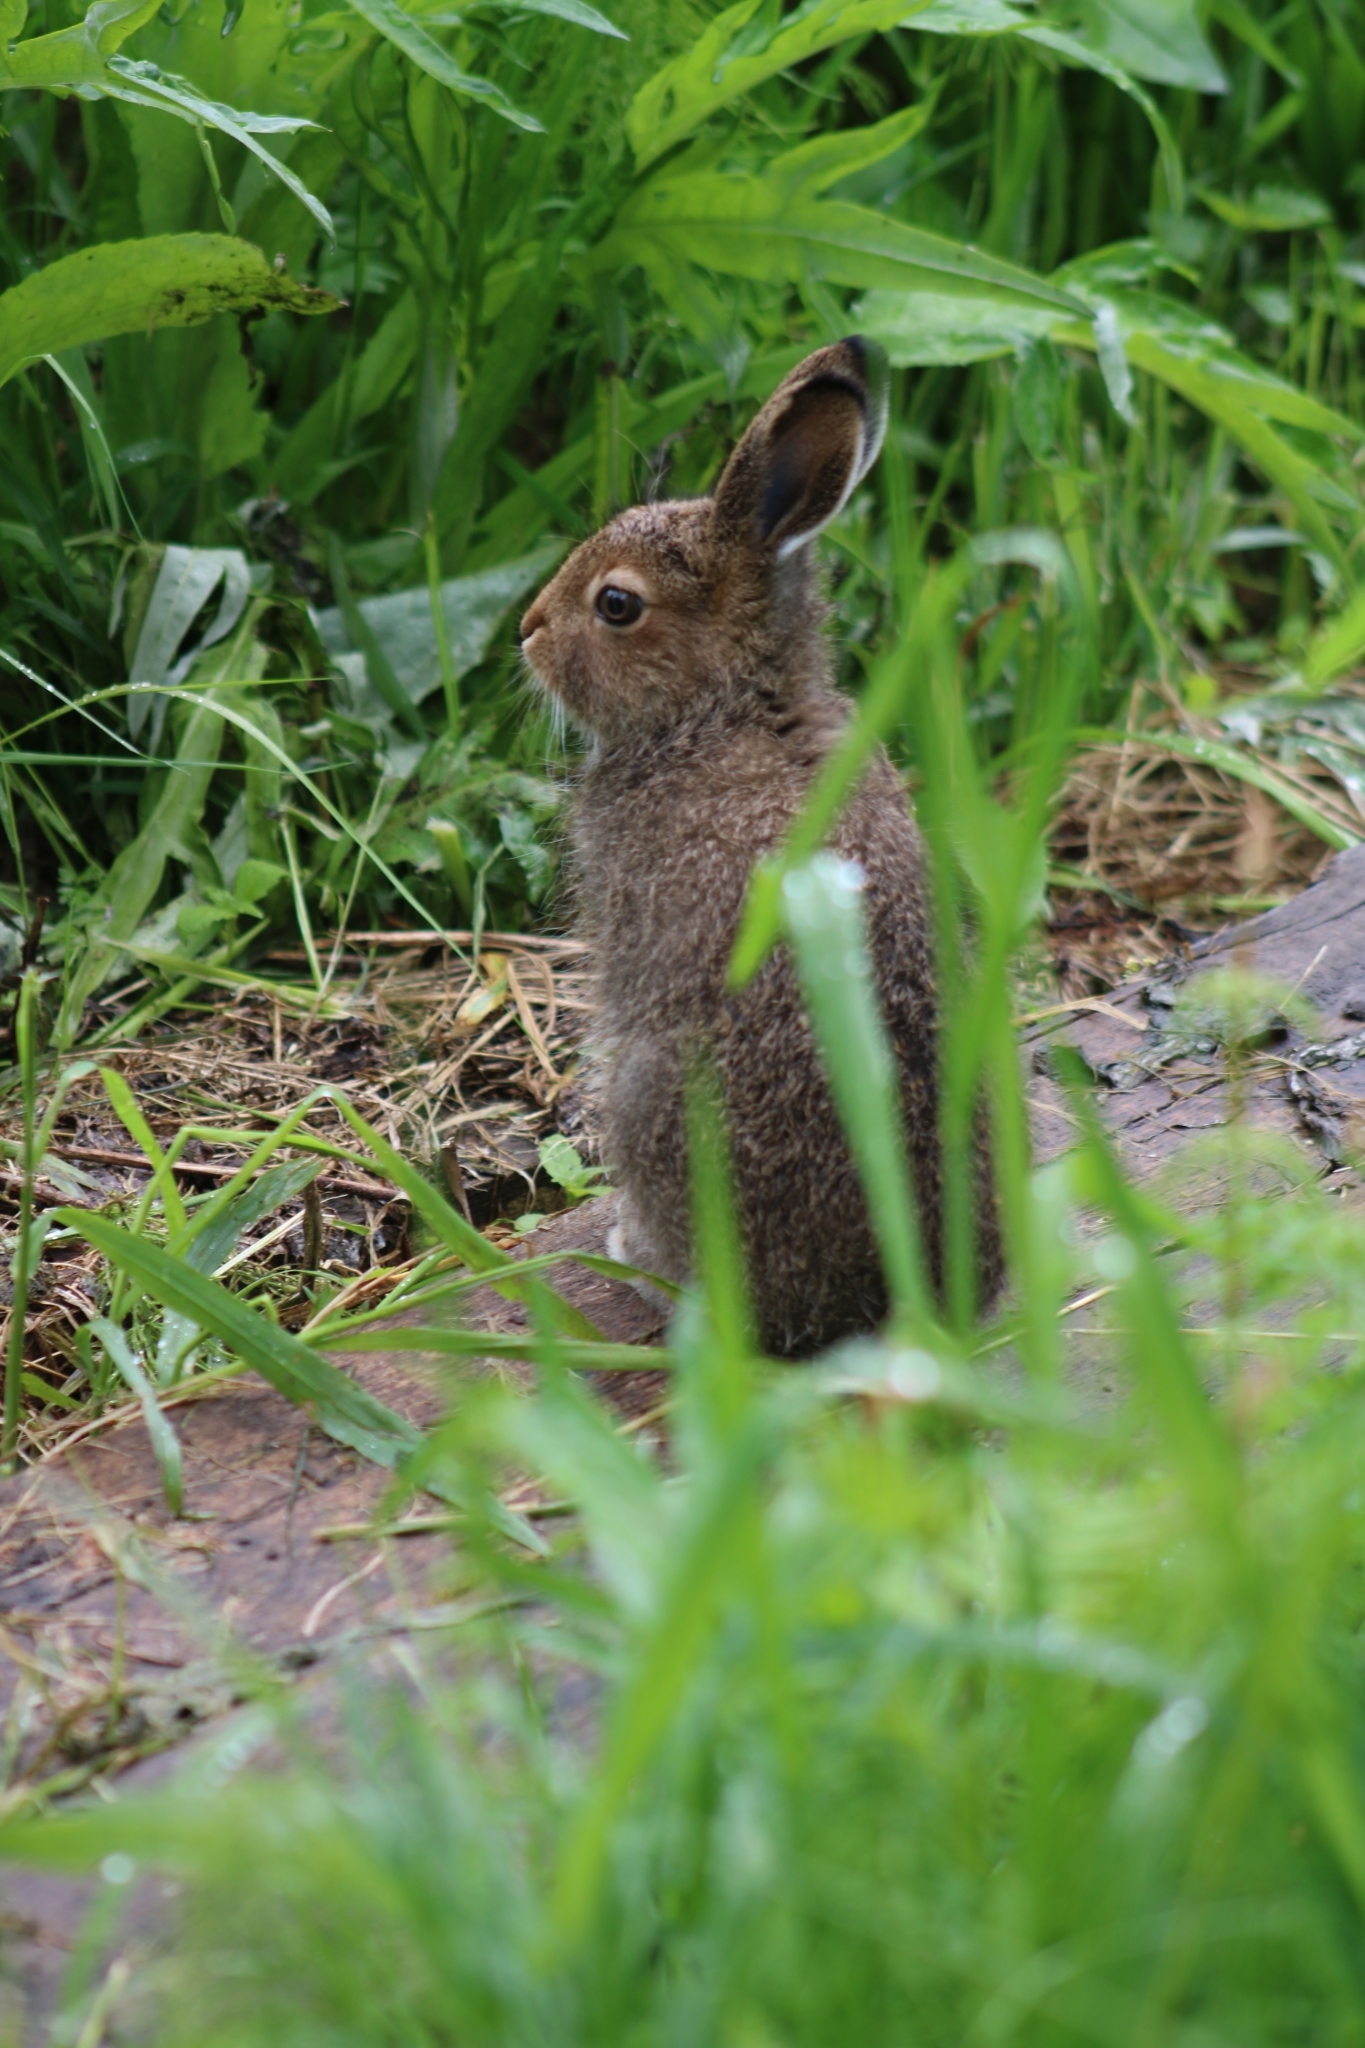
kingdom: Animalia
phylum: Chordata
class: Mammalia
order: Lagomorpha
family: Leporidae
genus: Lepus
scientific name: Lepus timidus
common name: Mountain hare
